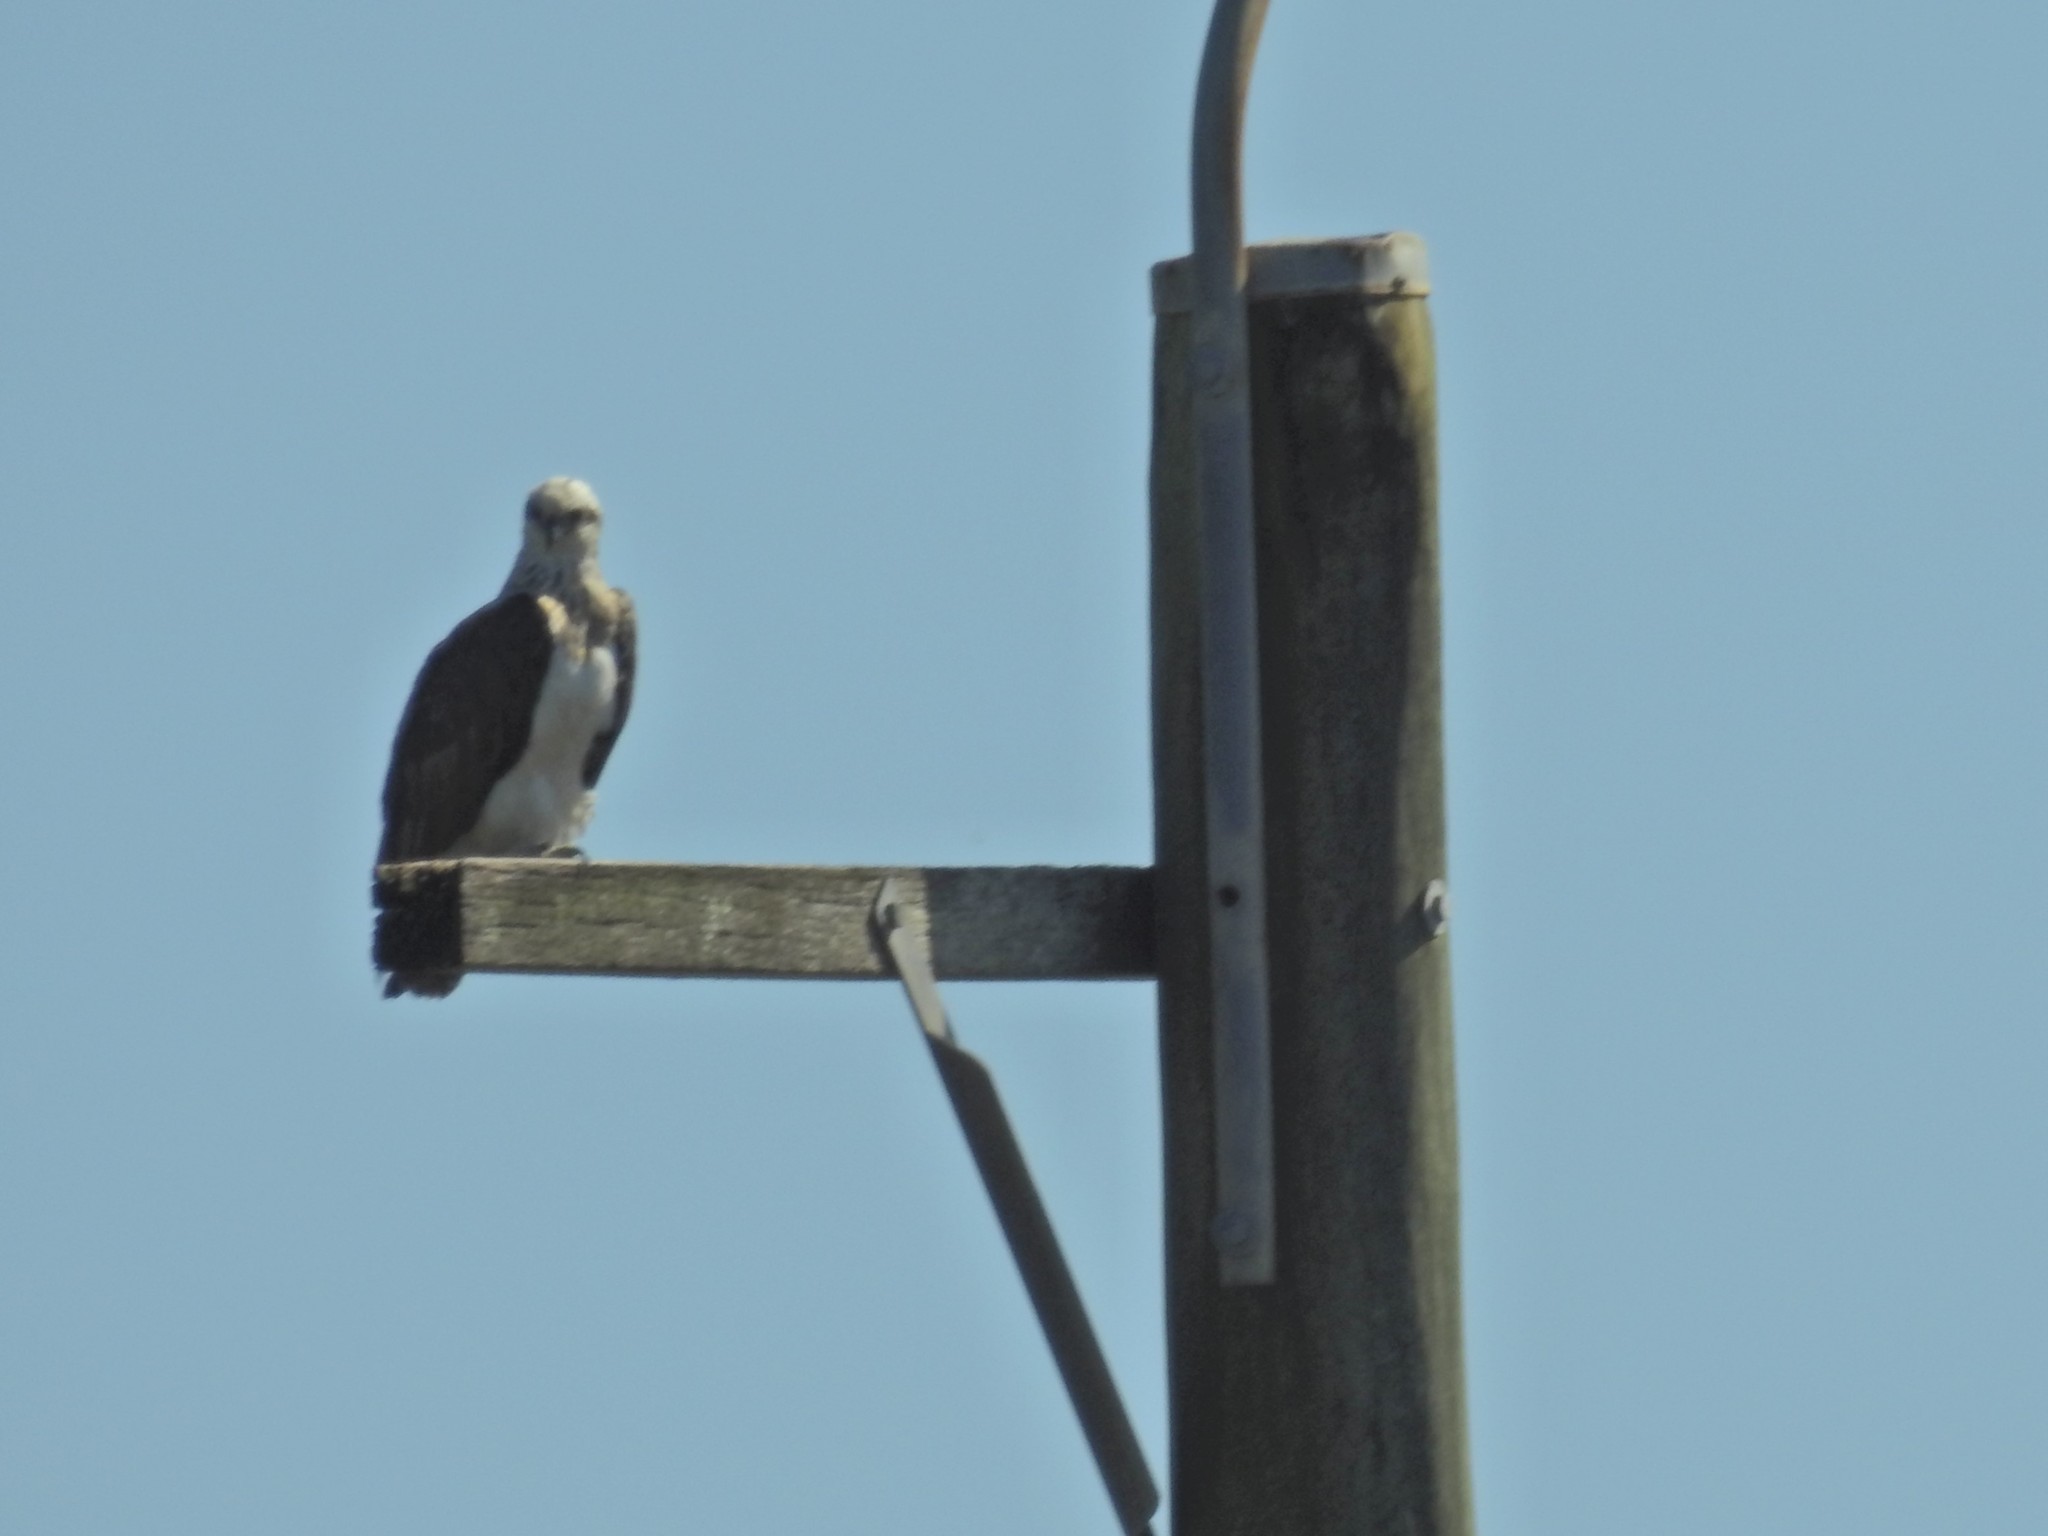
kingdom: Animalia
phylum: Chordata
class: Aves
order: Accipitriformes
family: Pandionidae
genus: Pandion
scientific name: Pandion haliaetus
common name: Osprey
